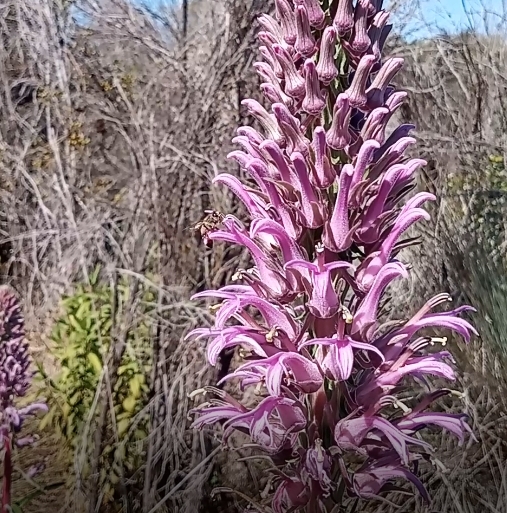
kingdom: Animalia
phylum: Arthropoda
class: Insecta
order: Hymenoptera
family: Apidae
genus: Apis
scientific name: Apis mellifera
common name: Honey bee
